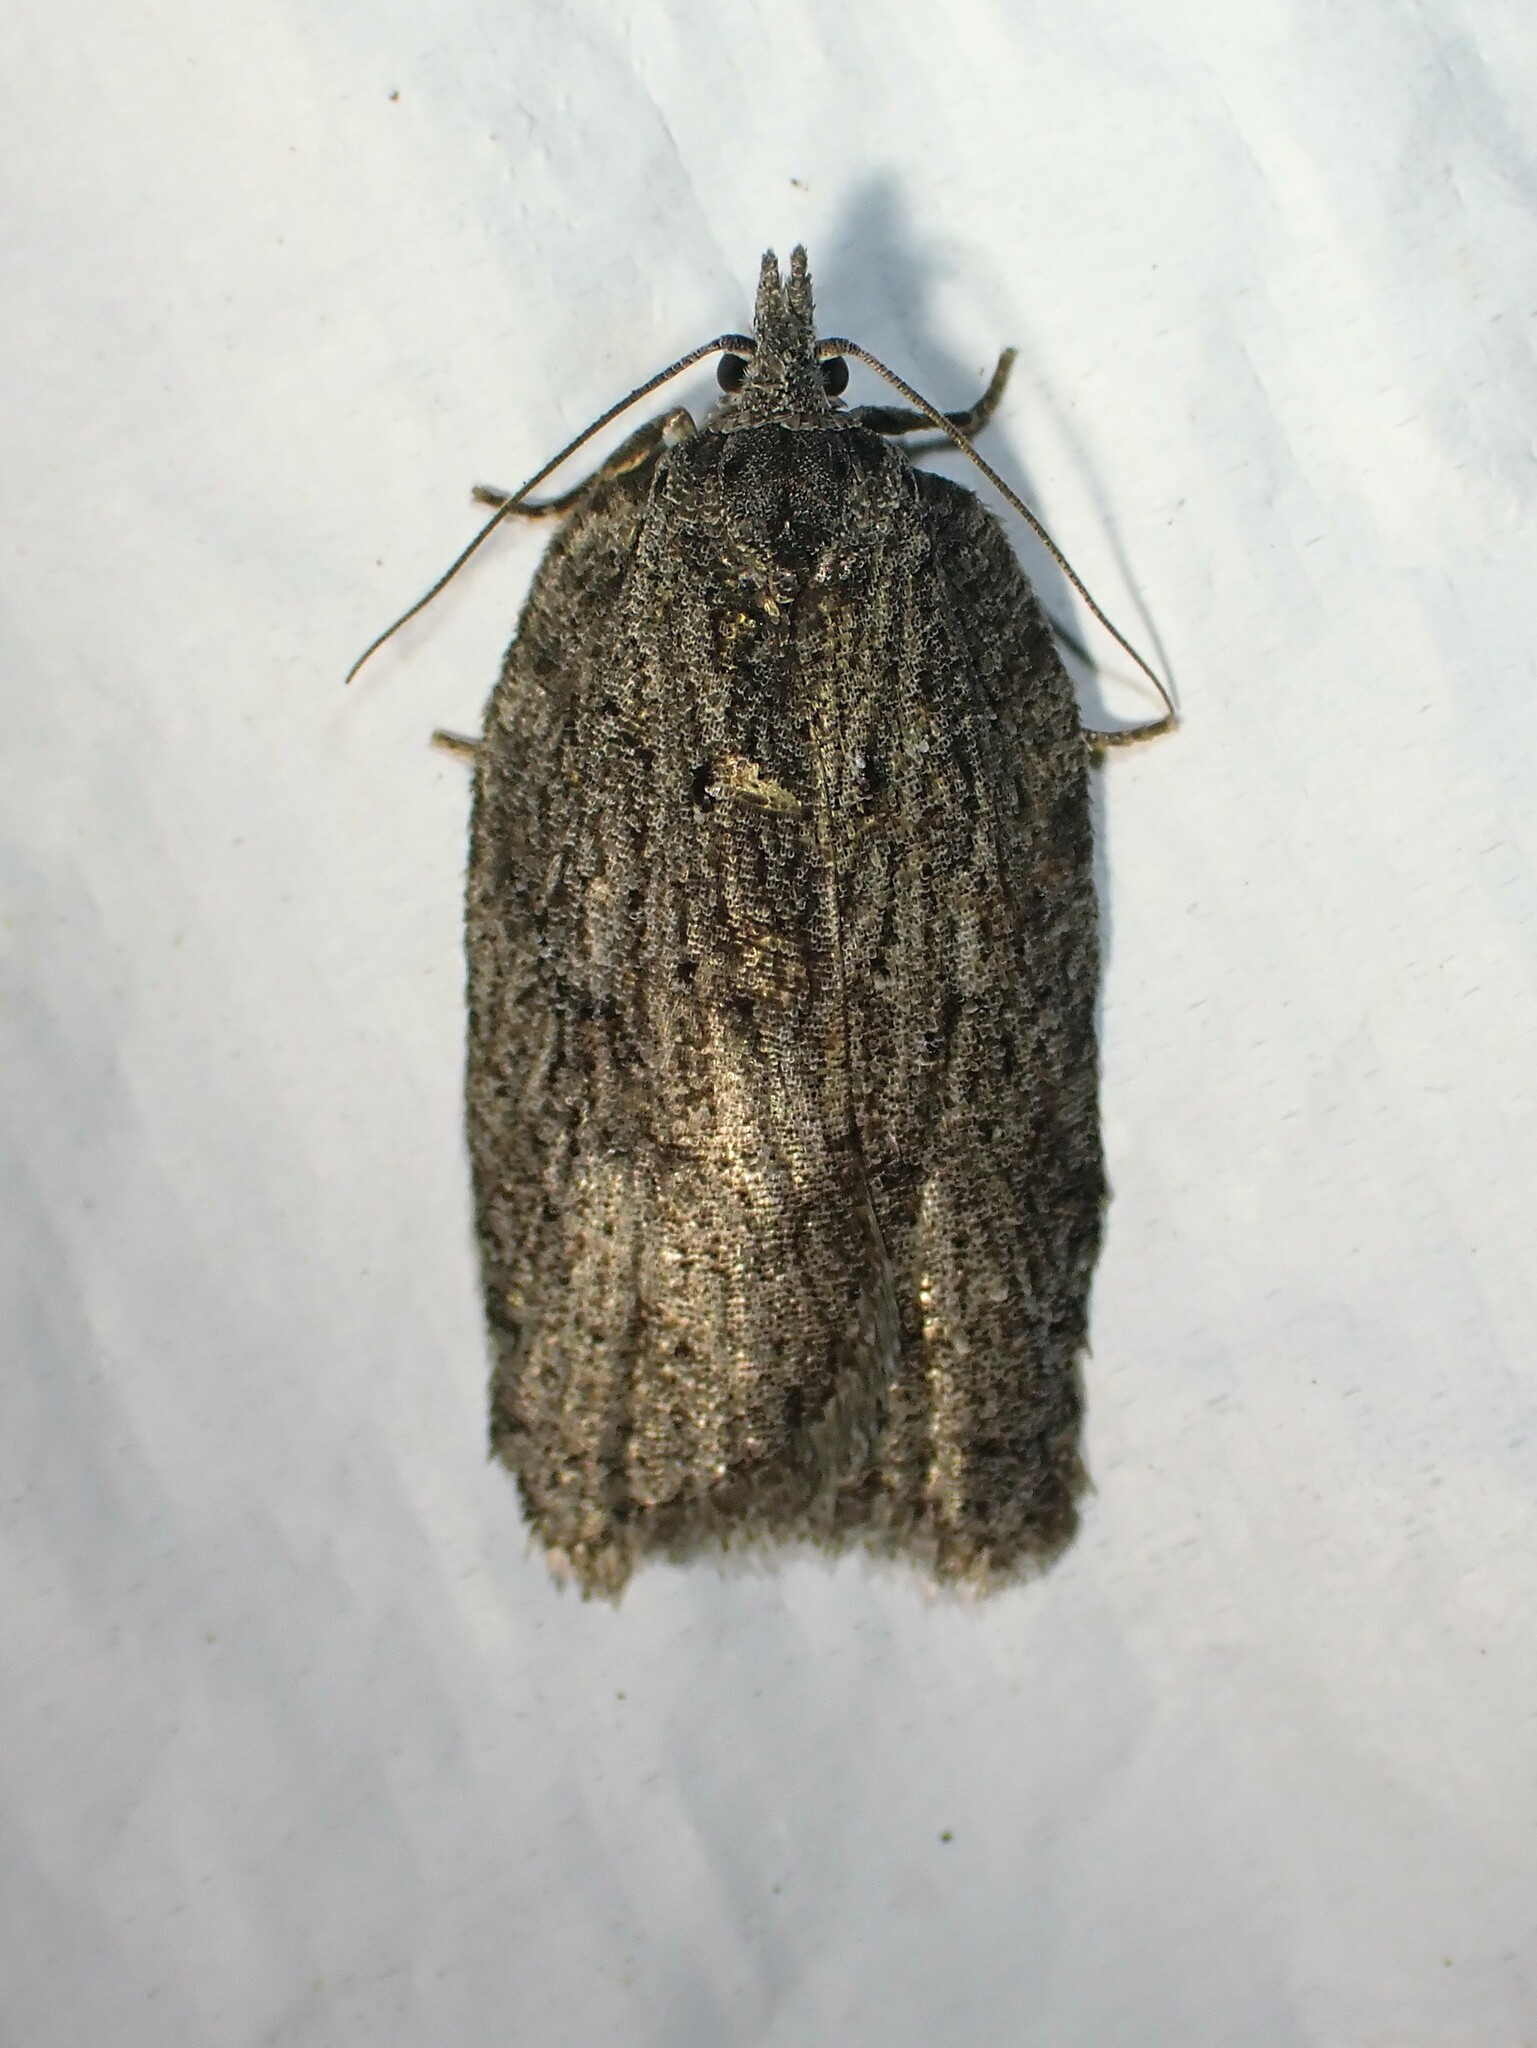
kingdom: Animalia
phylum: Arthropoda
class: Insecta
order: Lepidoptera
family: Tortricidae
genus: Acleris
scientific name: Acleris maximana
